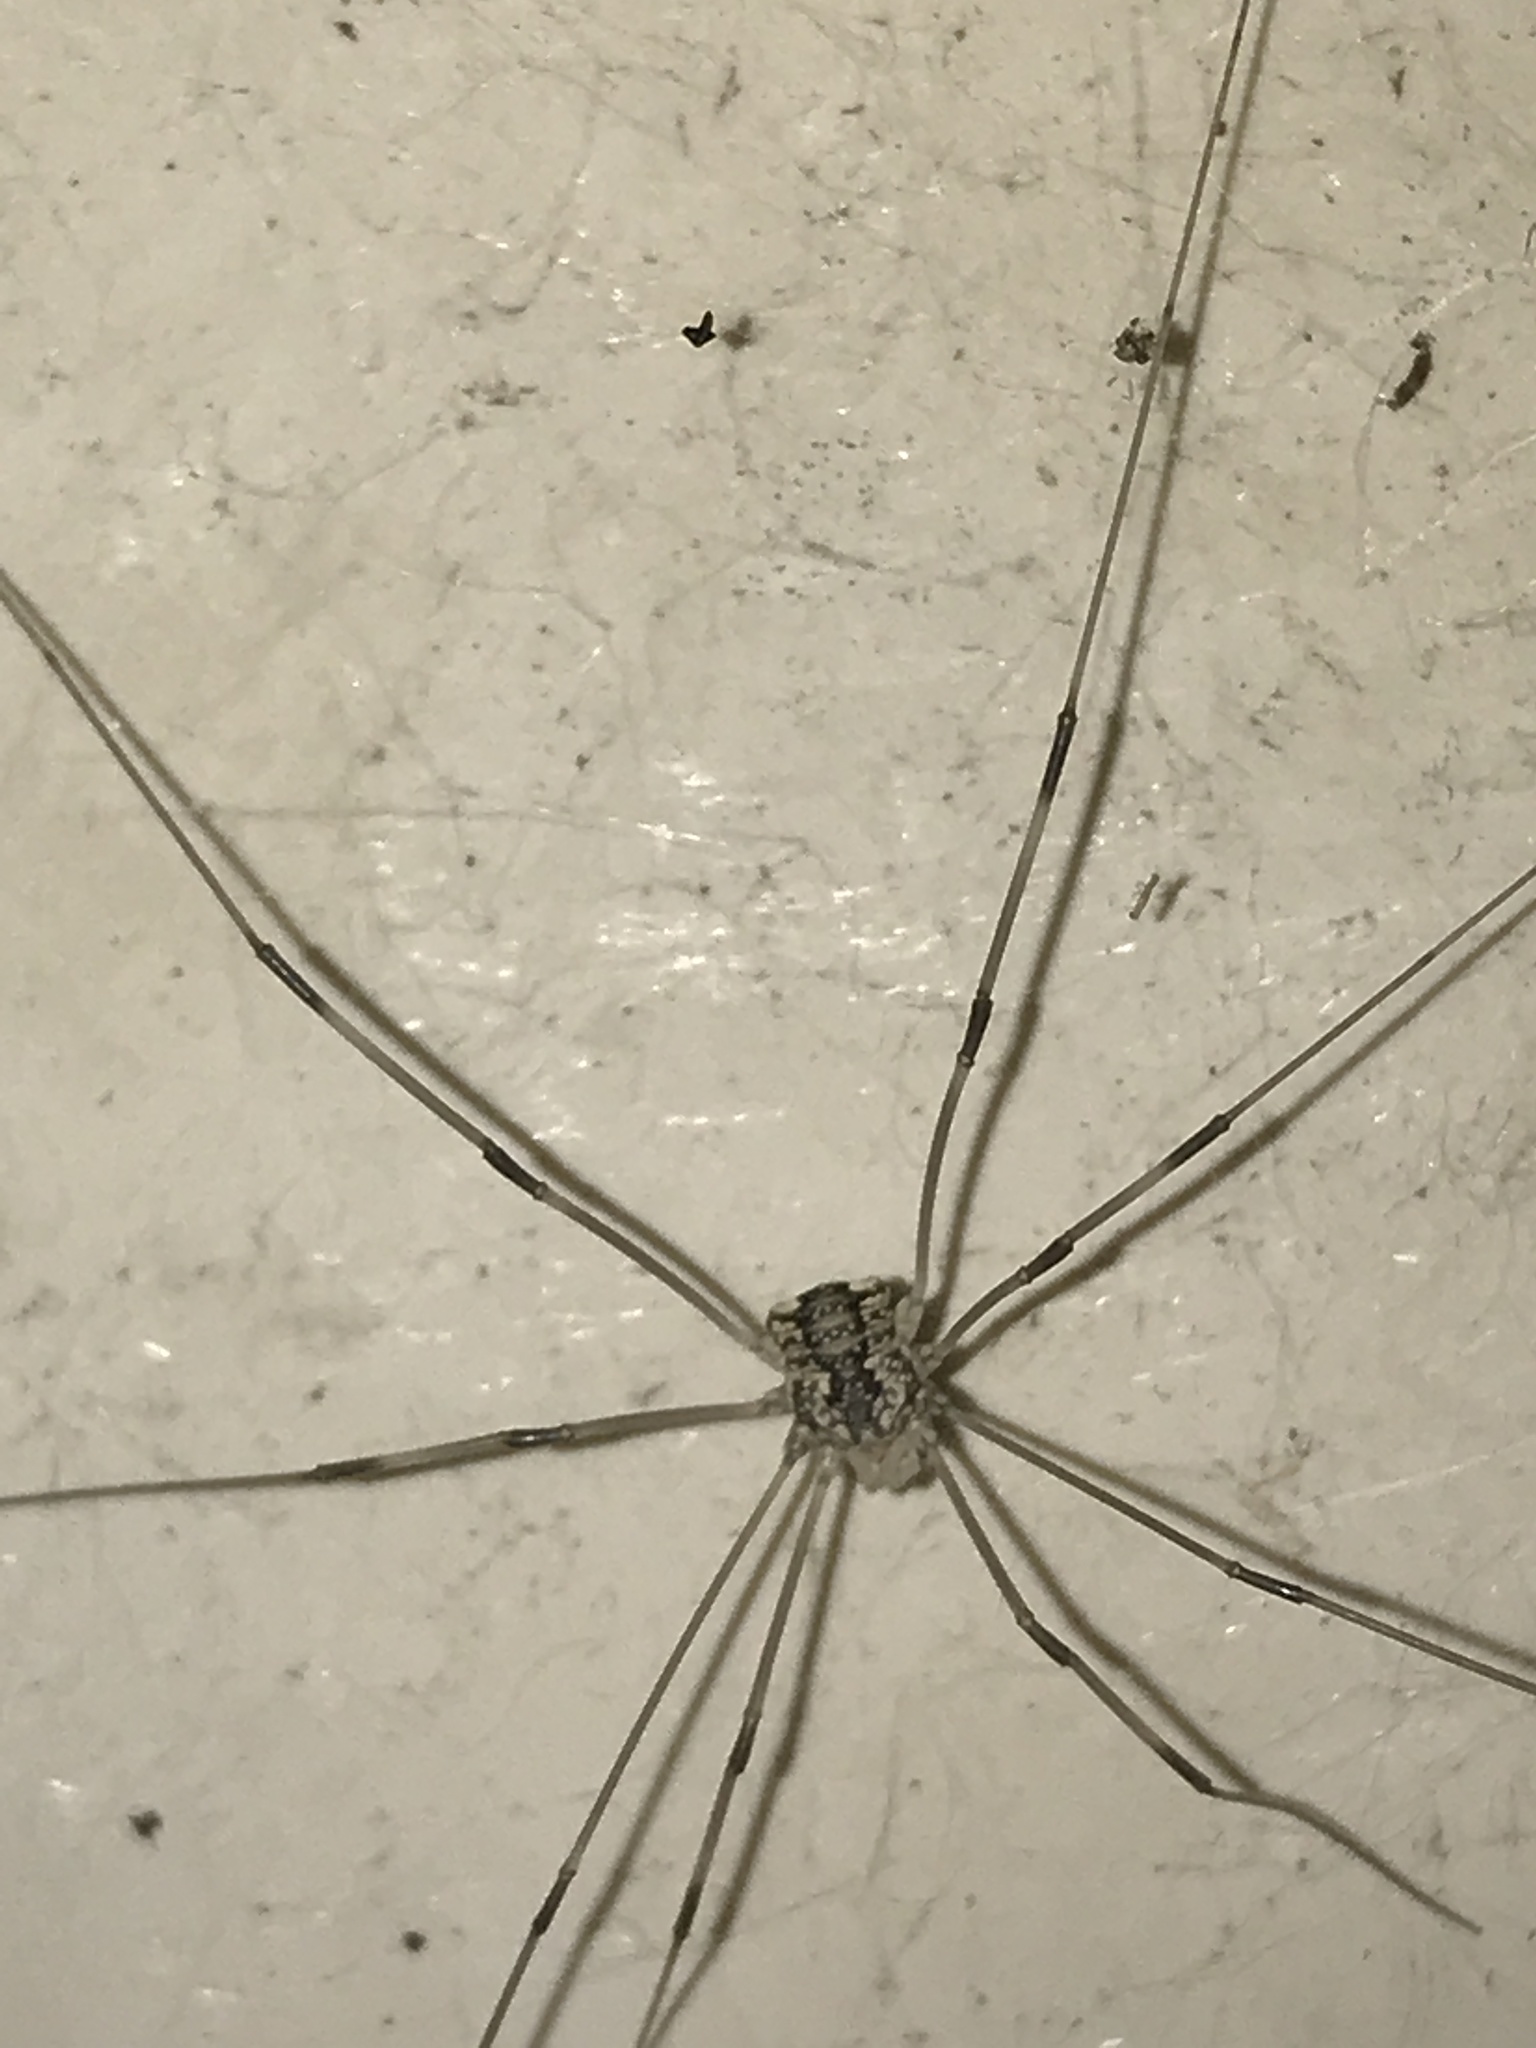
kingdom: Animalia
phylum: Arthropoda
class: Arachnida
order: Opiliones
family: Sclerosomatidae
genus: Leiobunum
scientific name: Leiobunum vittatum
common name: Eastern harvestman
